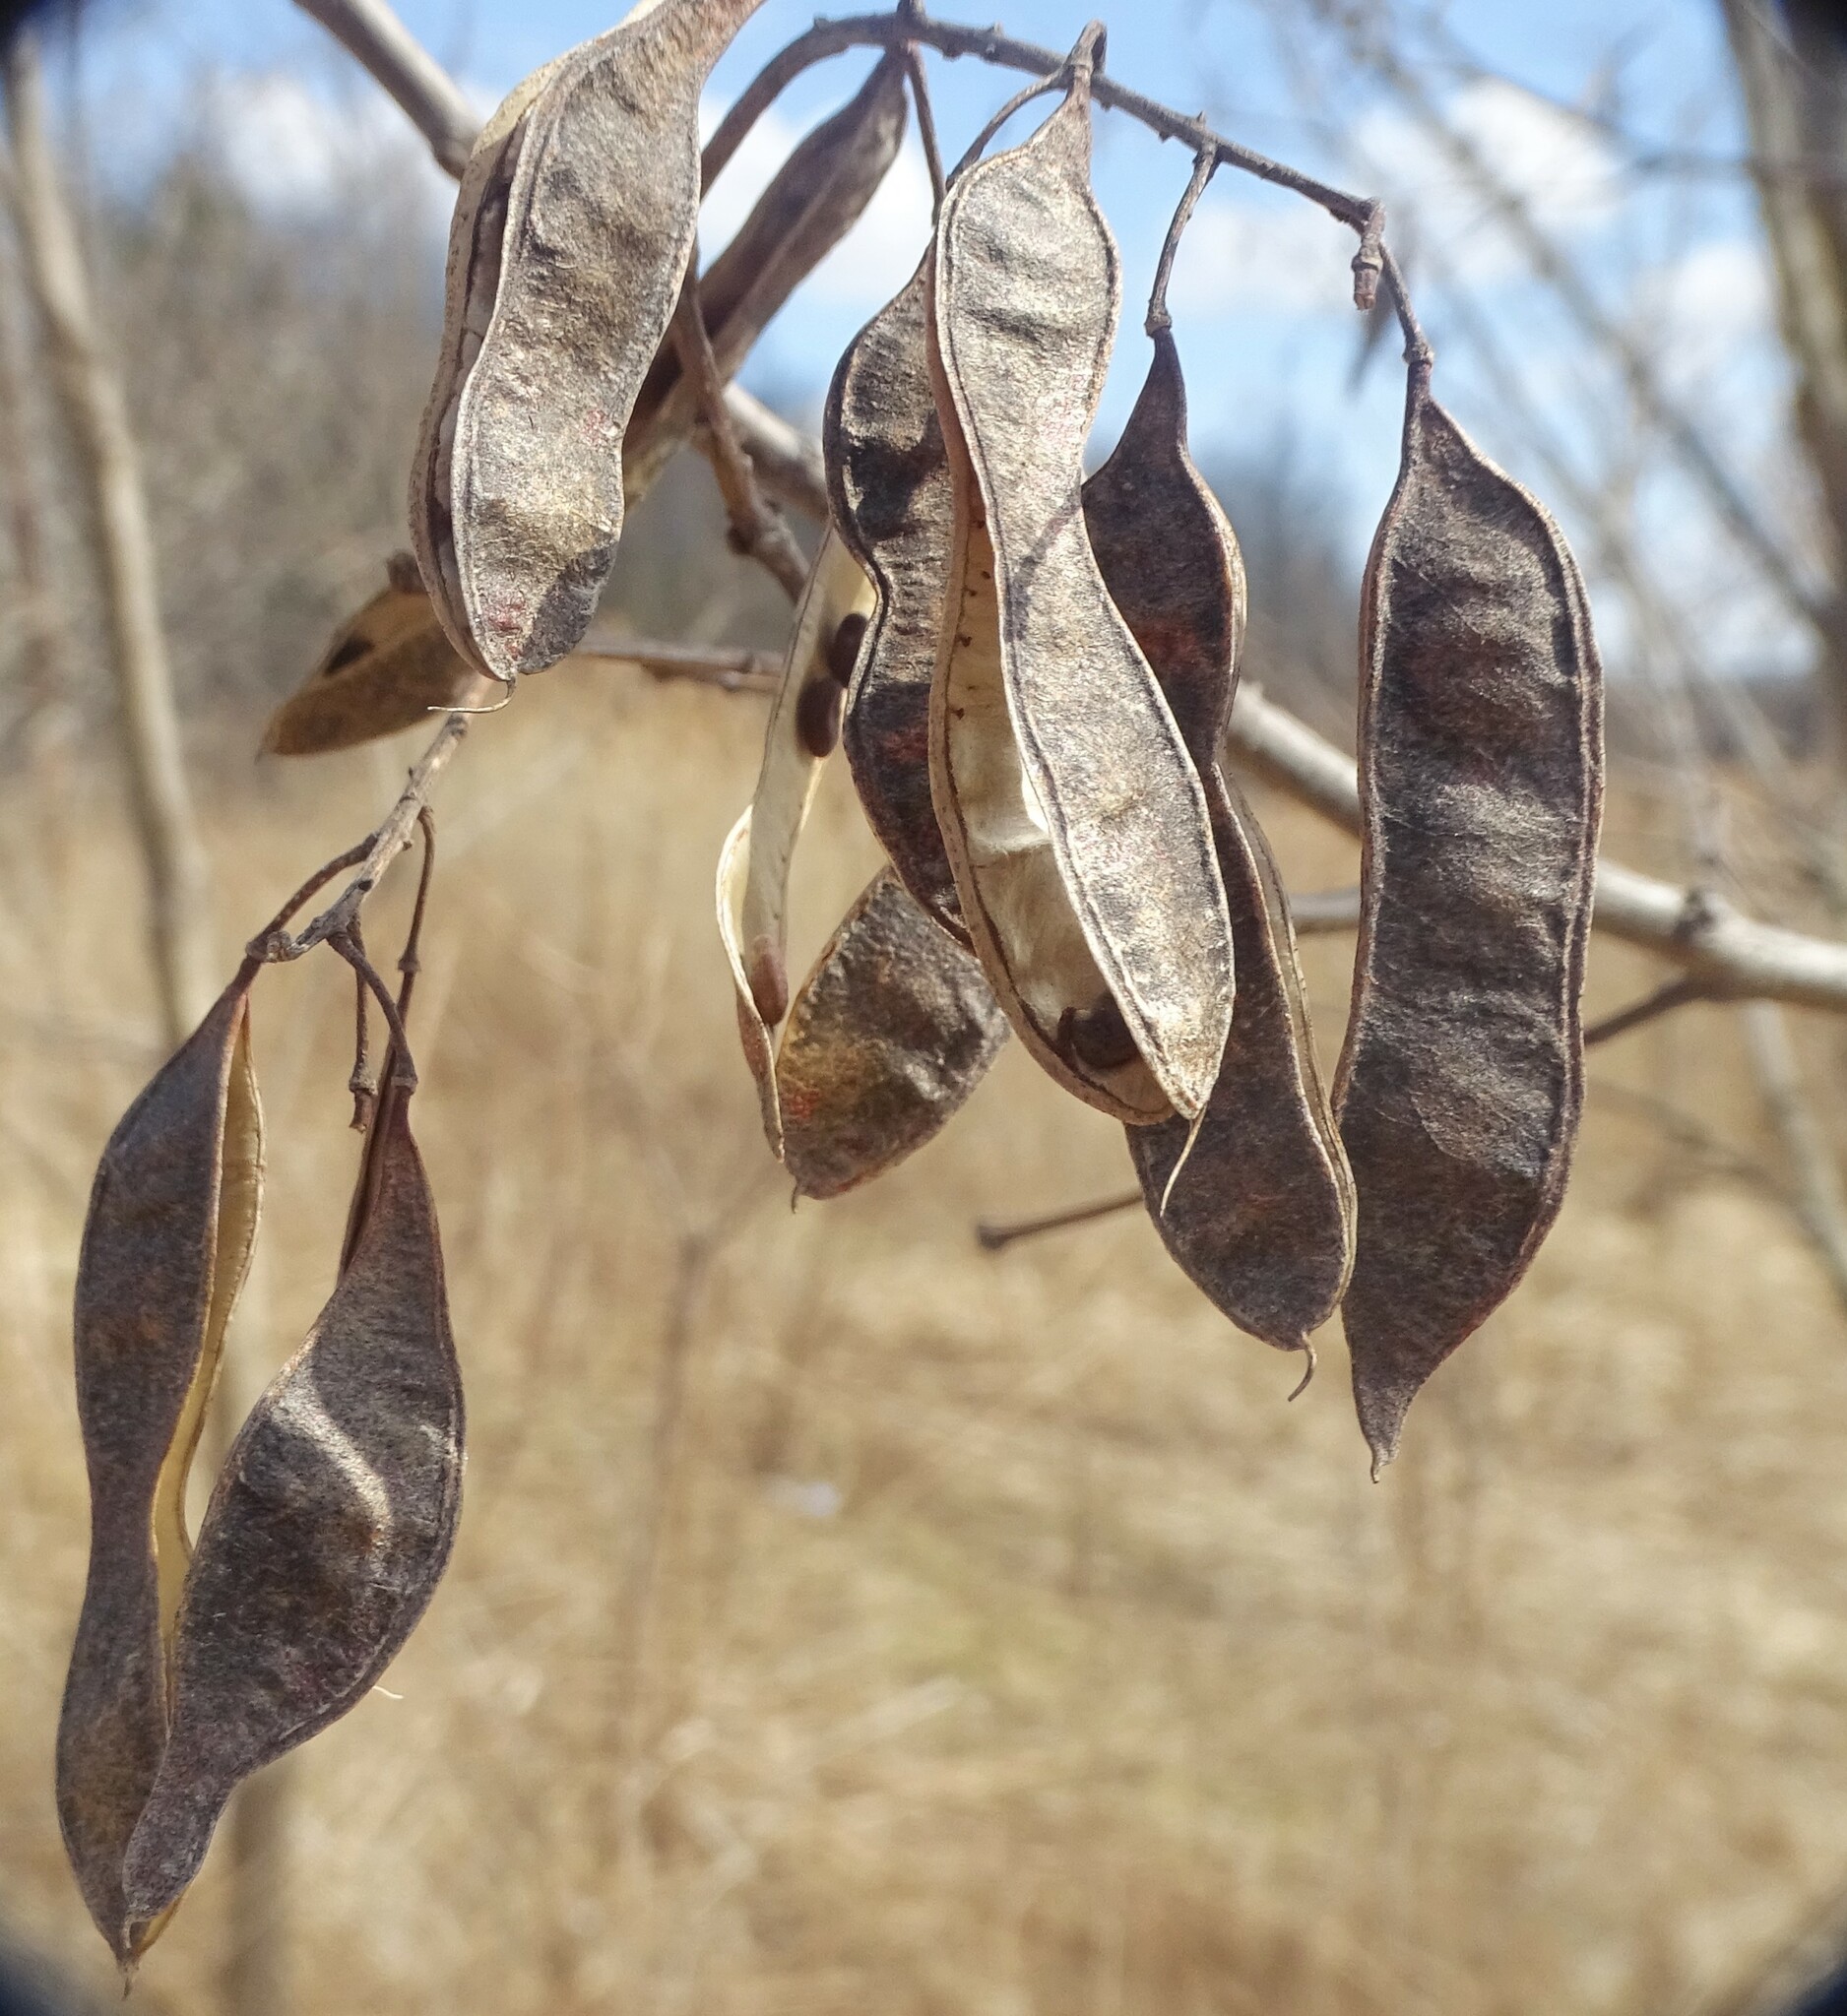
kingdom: Plantae
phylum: Tracheophyta
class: Magnoliopsida
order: Fabales
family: Fabaceae
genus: Robinia
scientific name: Robinia pseudoacacia
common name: Black locust
